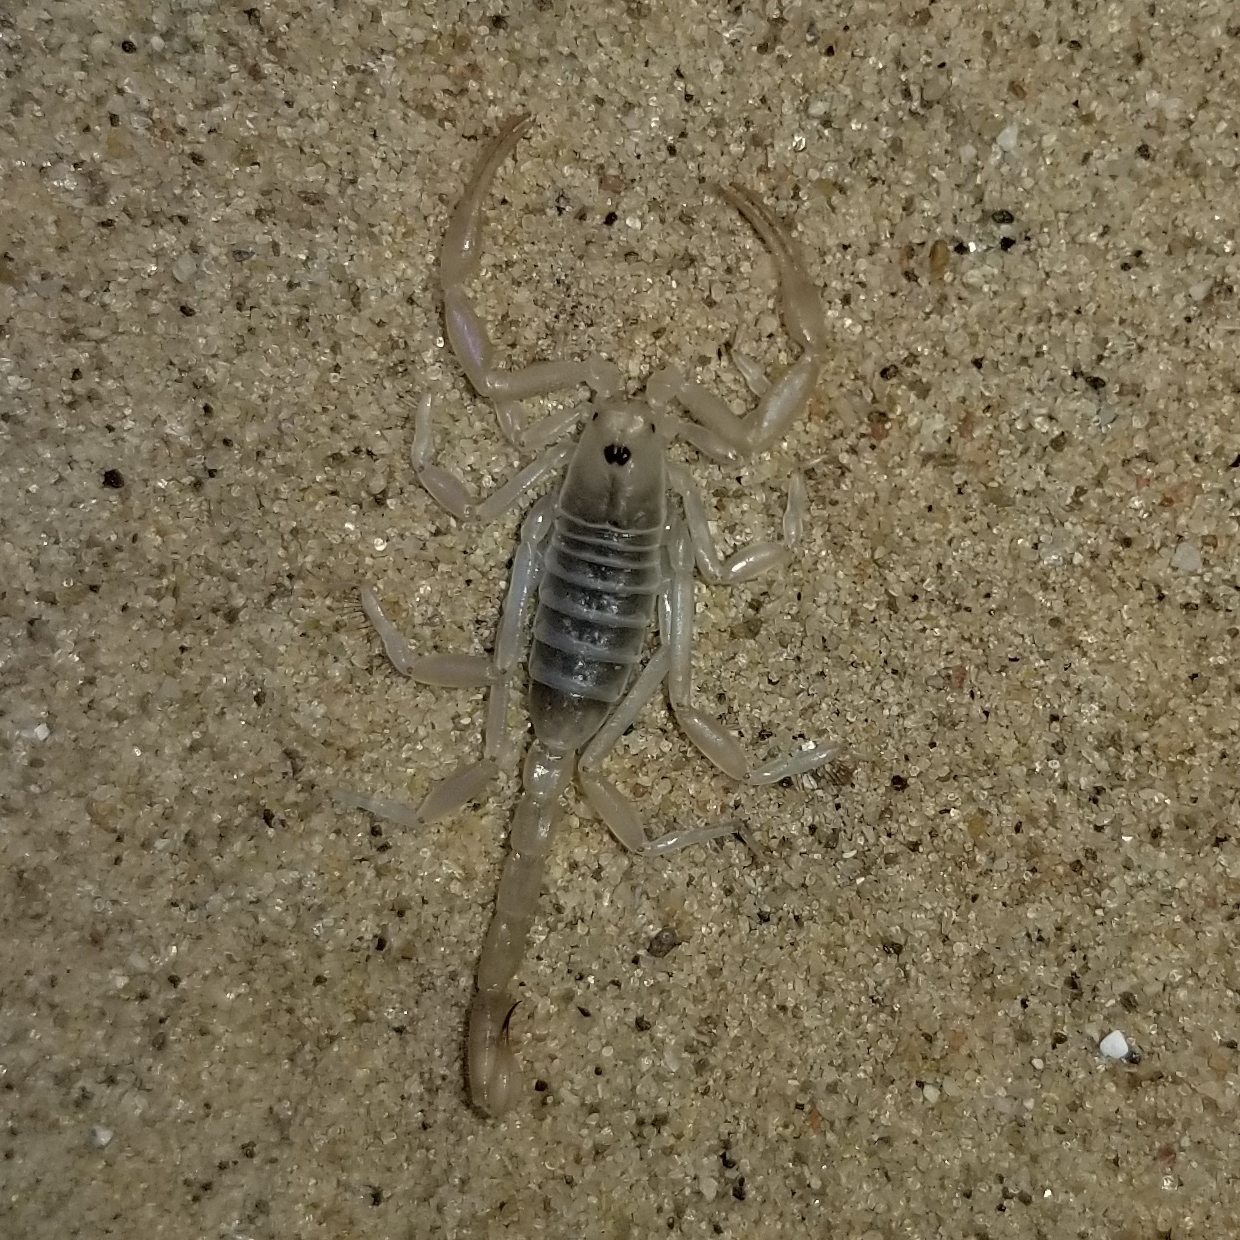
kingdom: Animalia
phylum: Arthropoda
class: Arachnida
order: Scorpiones
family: Vaejovidae
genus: Paruroctonus
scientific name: Paruroctonus xanthus
